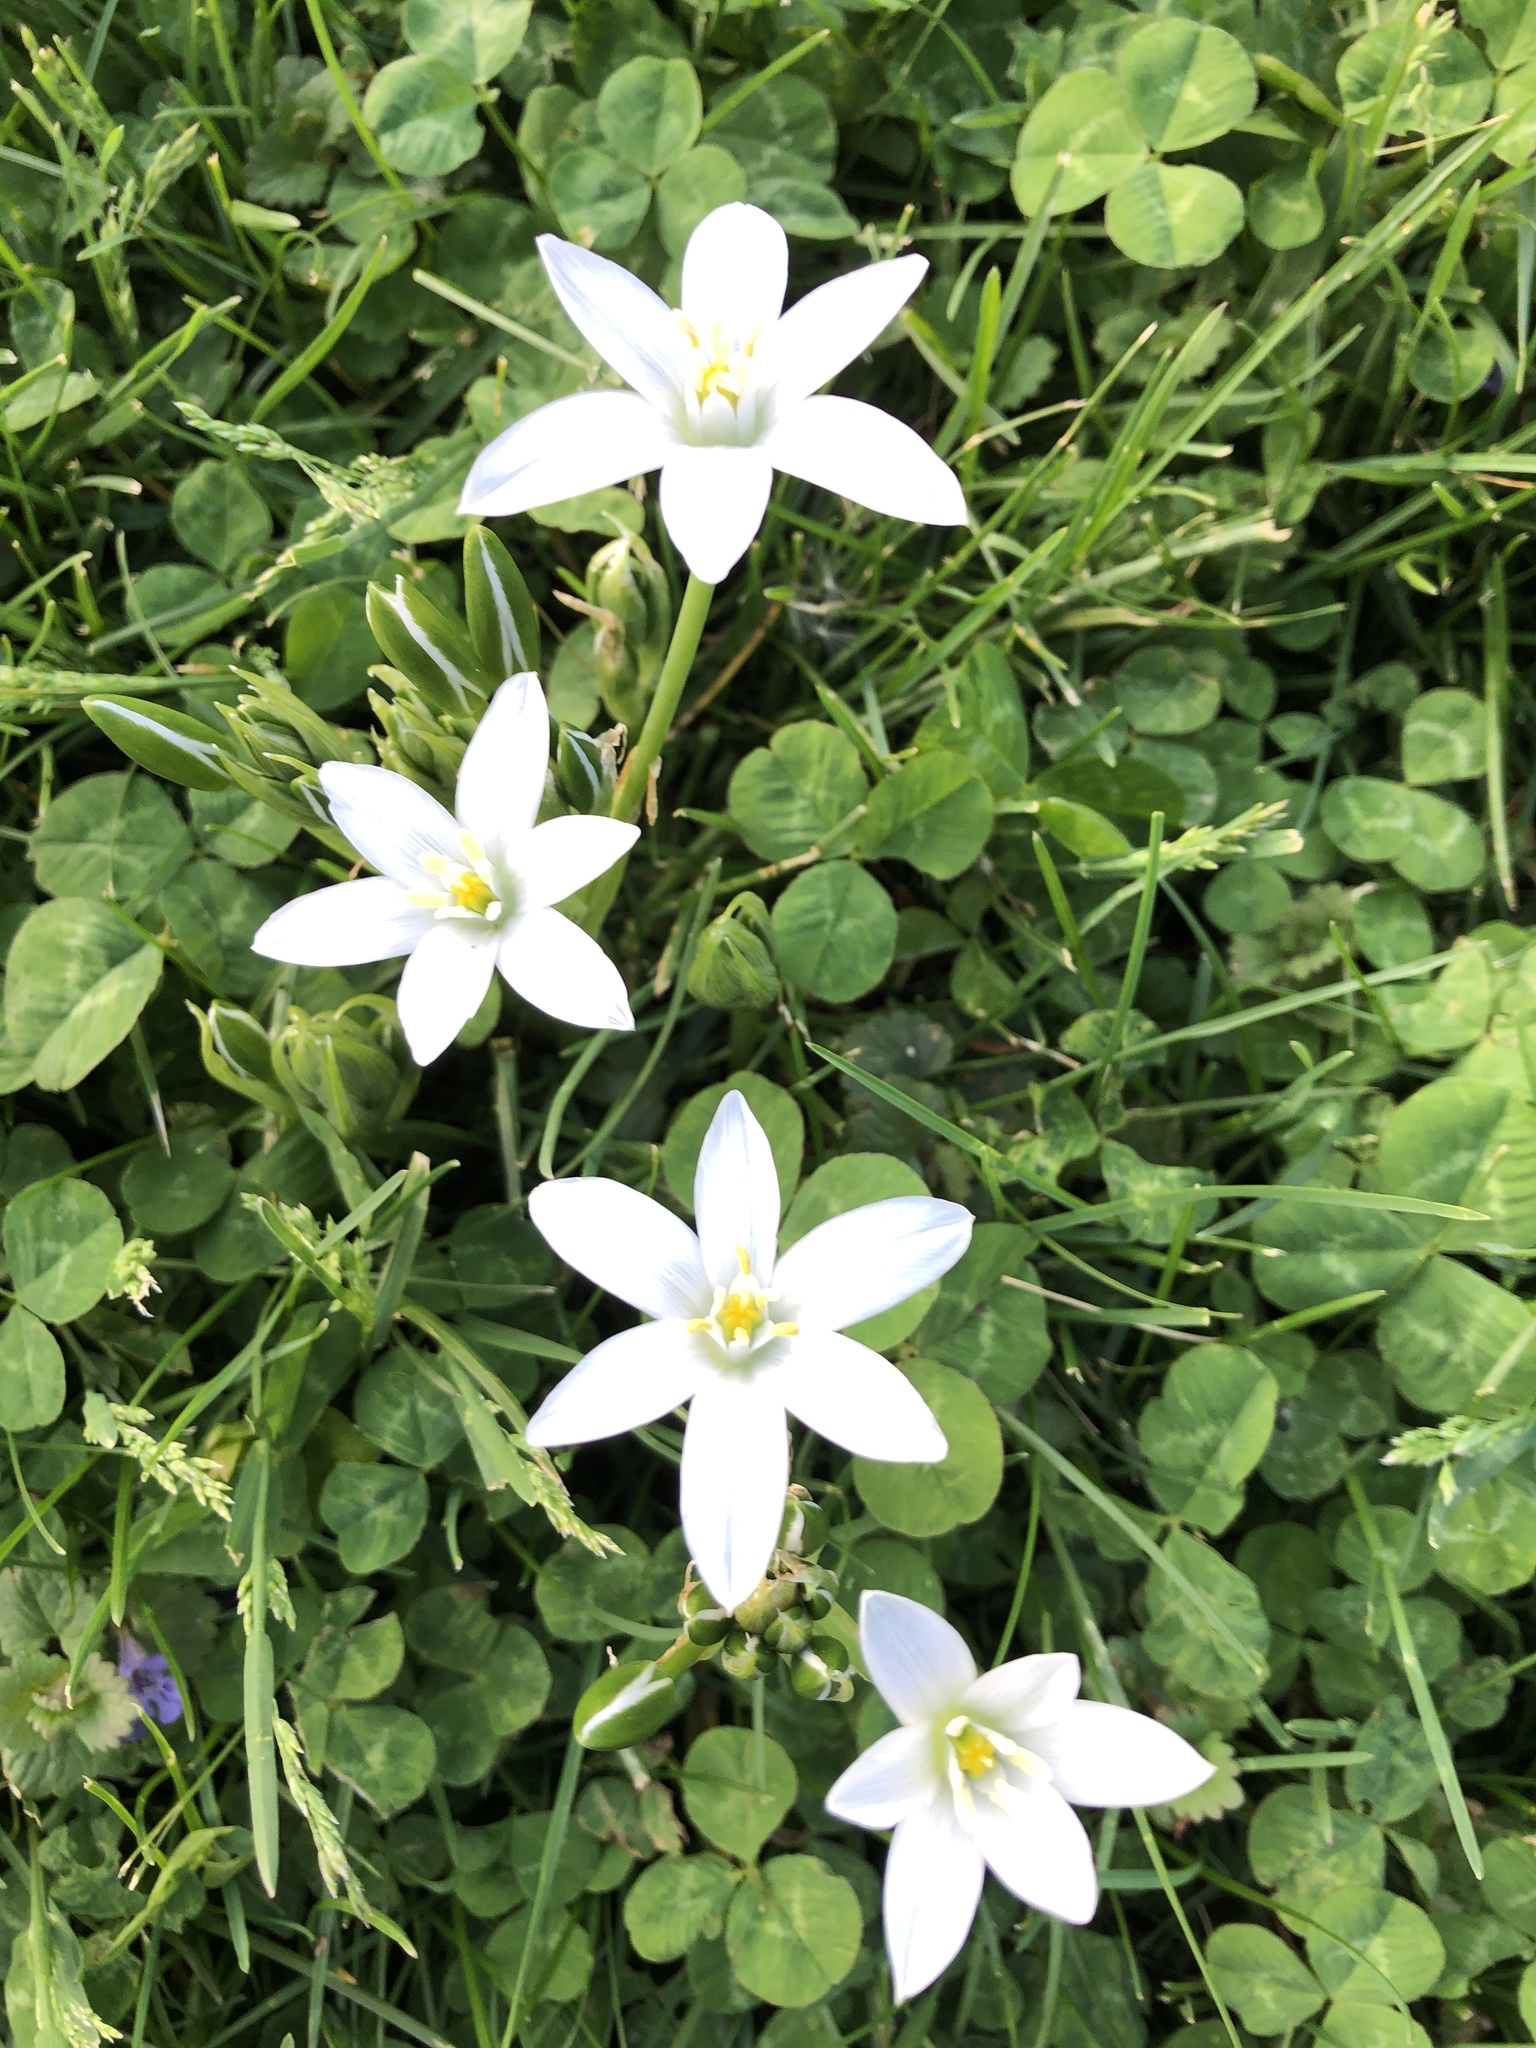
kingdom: Plantae
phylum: Tracheophyta
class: Liliopsida
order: Asparagales
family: Asparagaceae
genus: Ornithogalum
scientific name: Ornithogalum umbellatum
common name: Garden star-of-bethlehem
